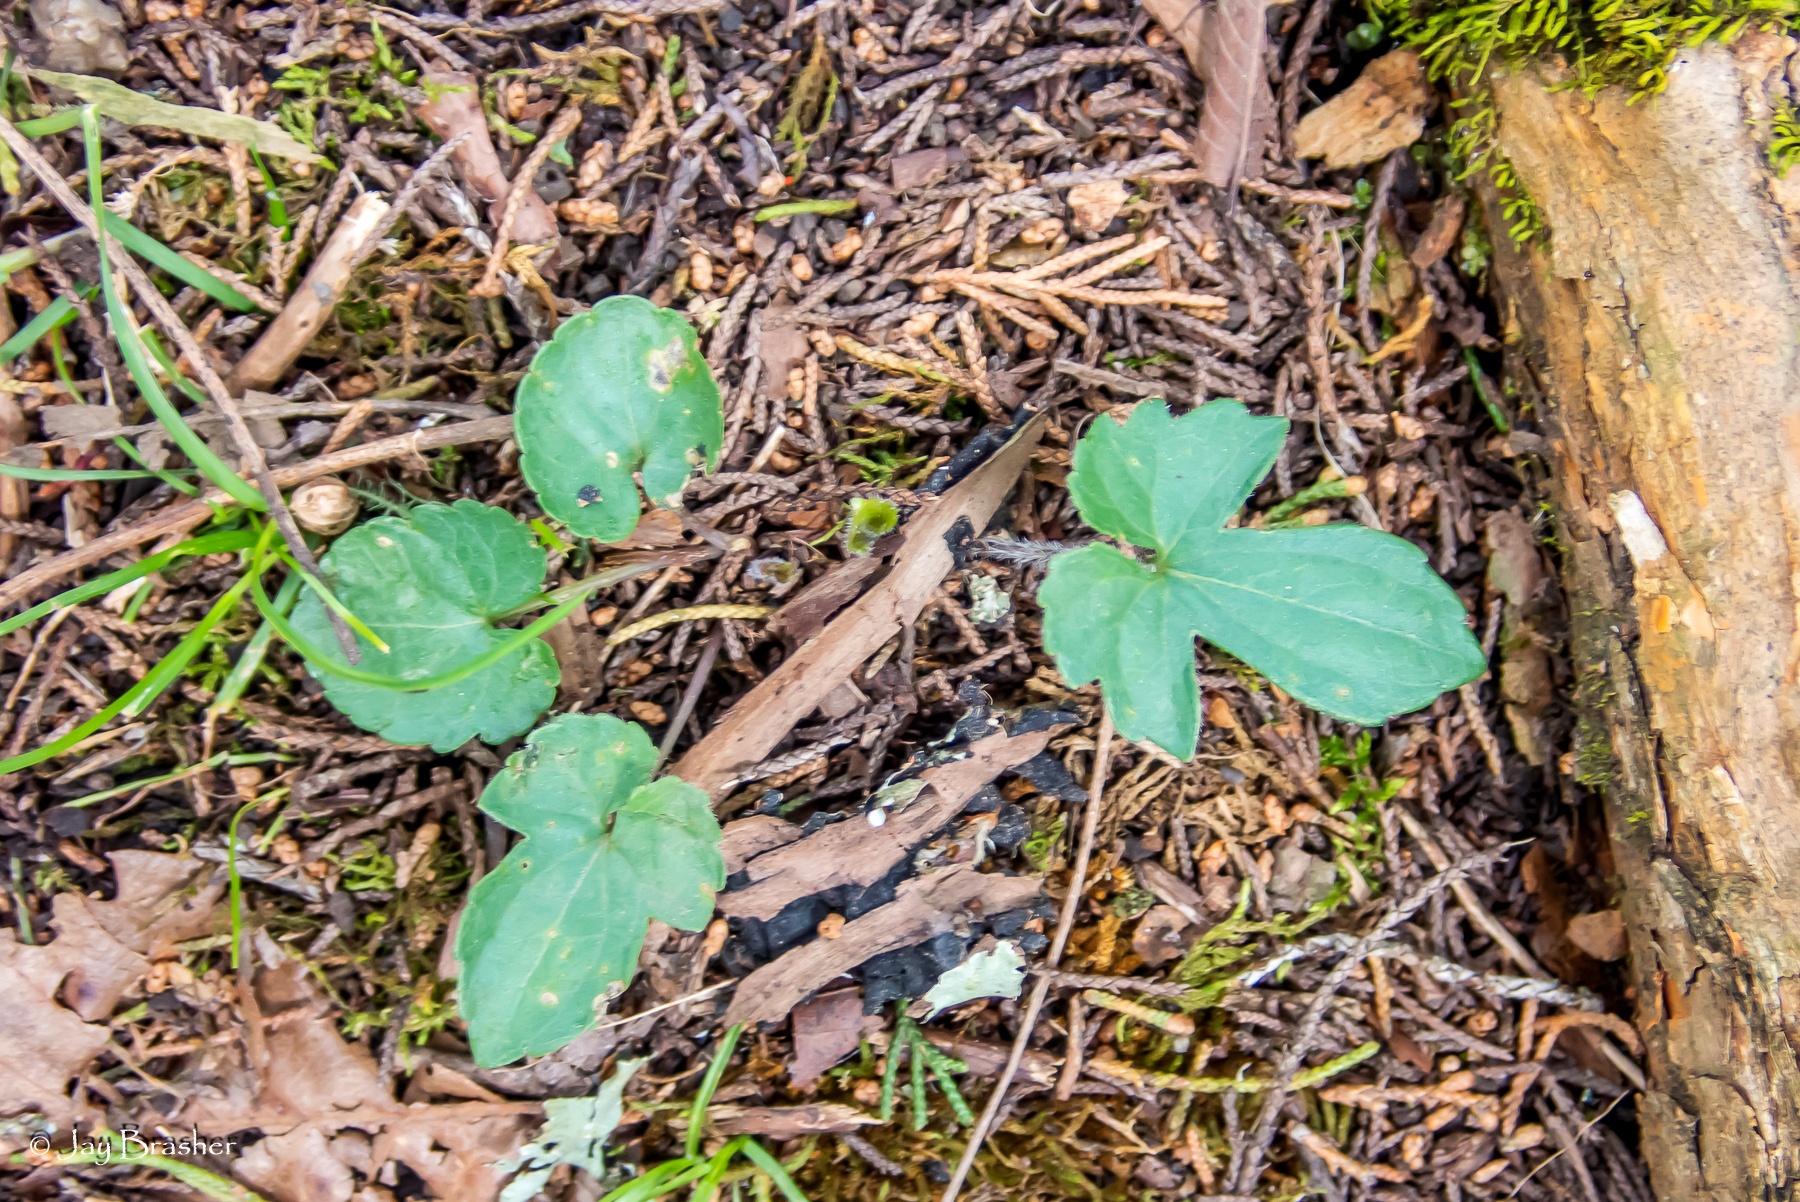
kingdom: Plantae
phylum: Tracheophyta
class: Magnoliopsida
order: Malpighiales
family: Violaceae
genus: Viola
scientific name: Viola palmata
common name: Early blue violet
